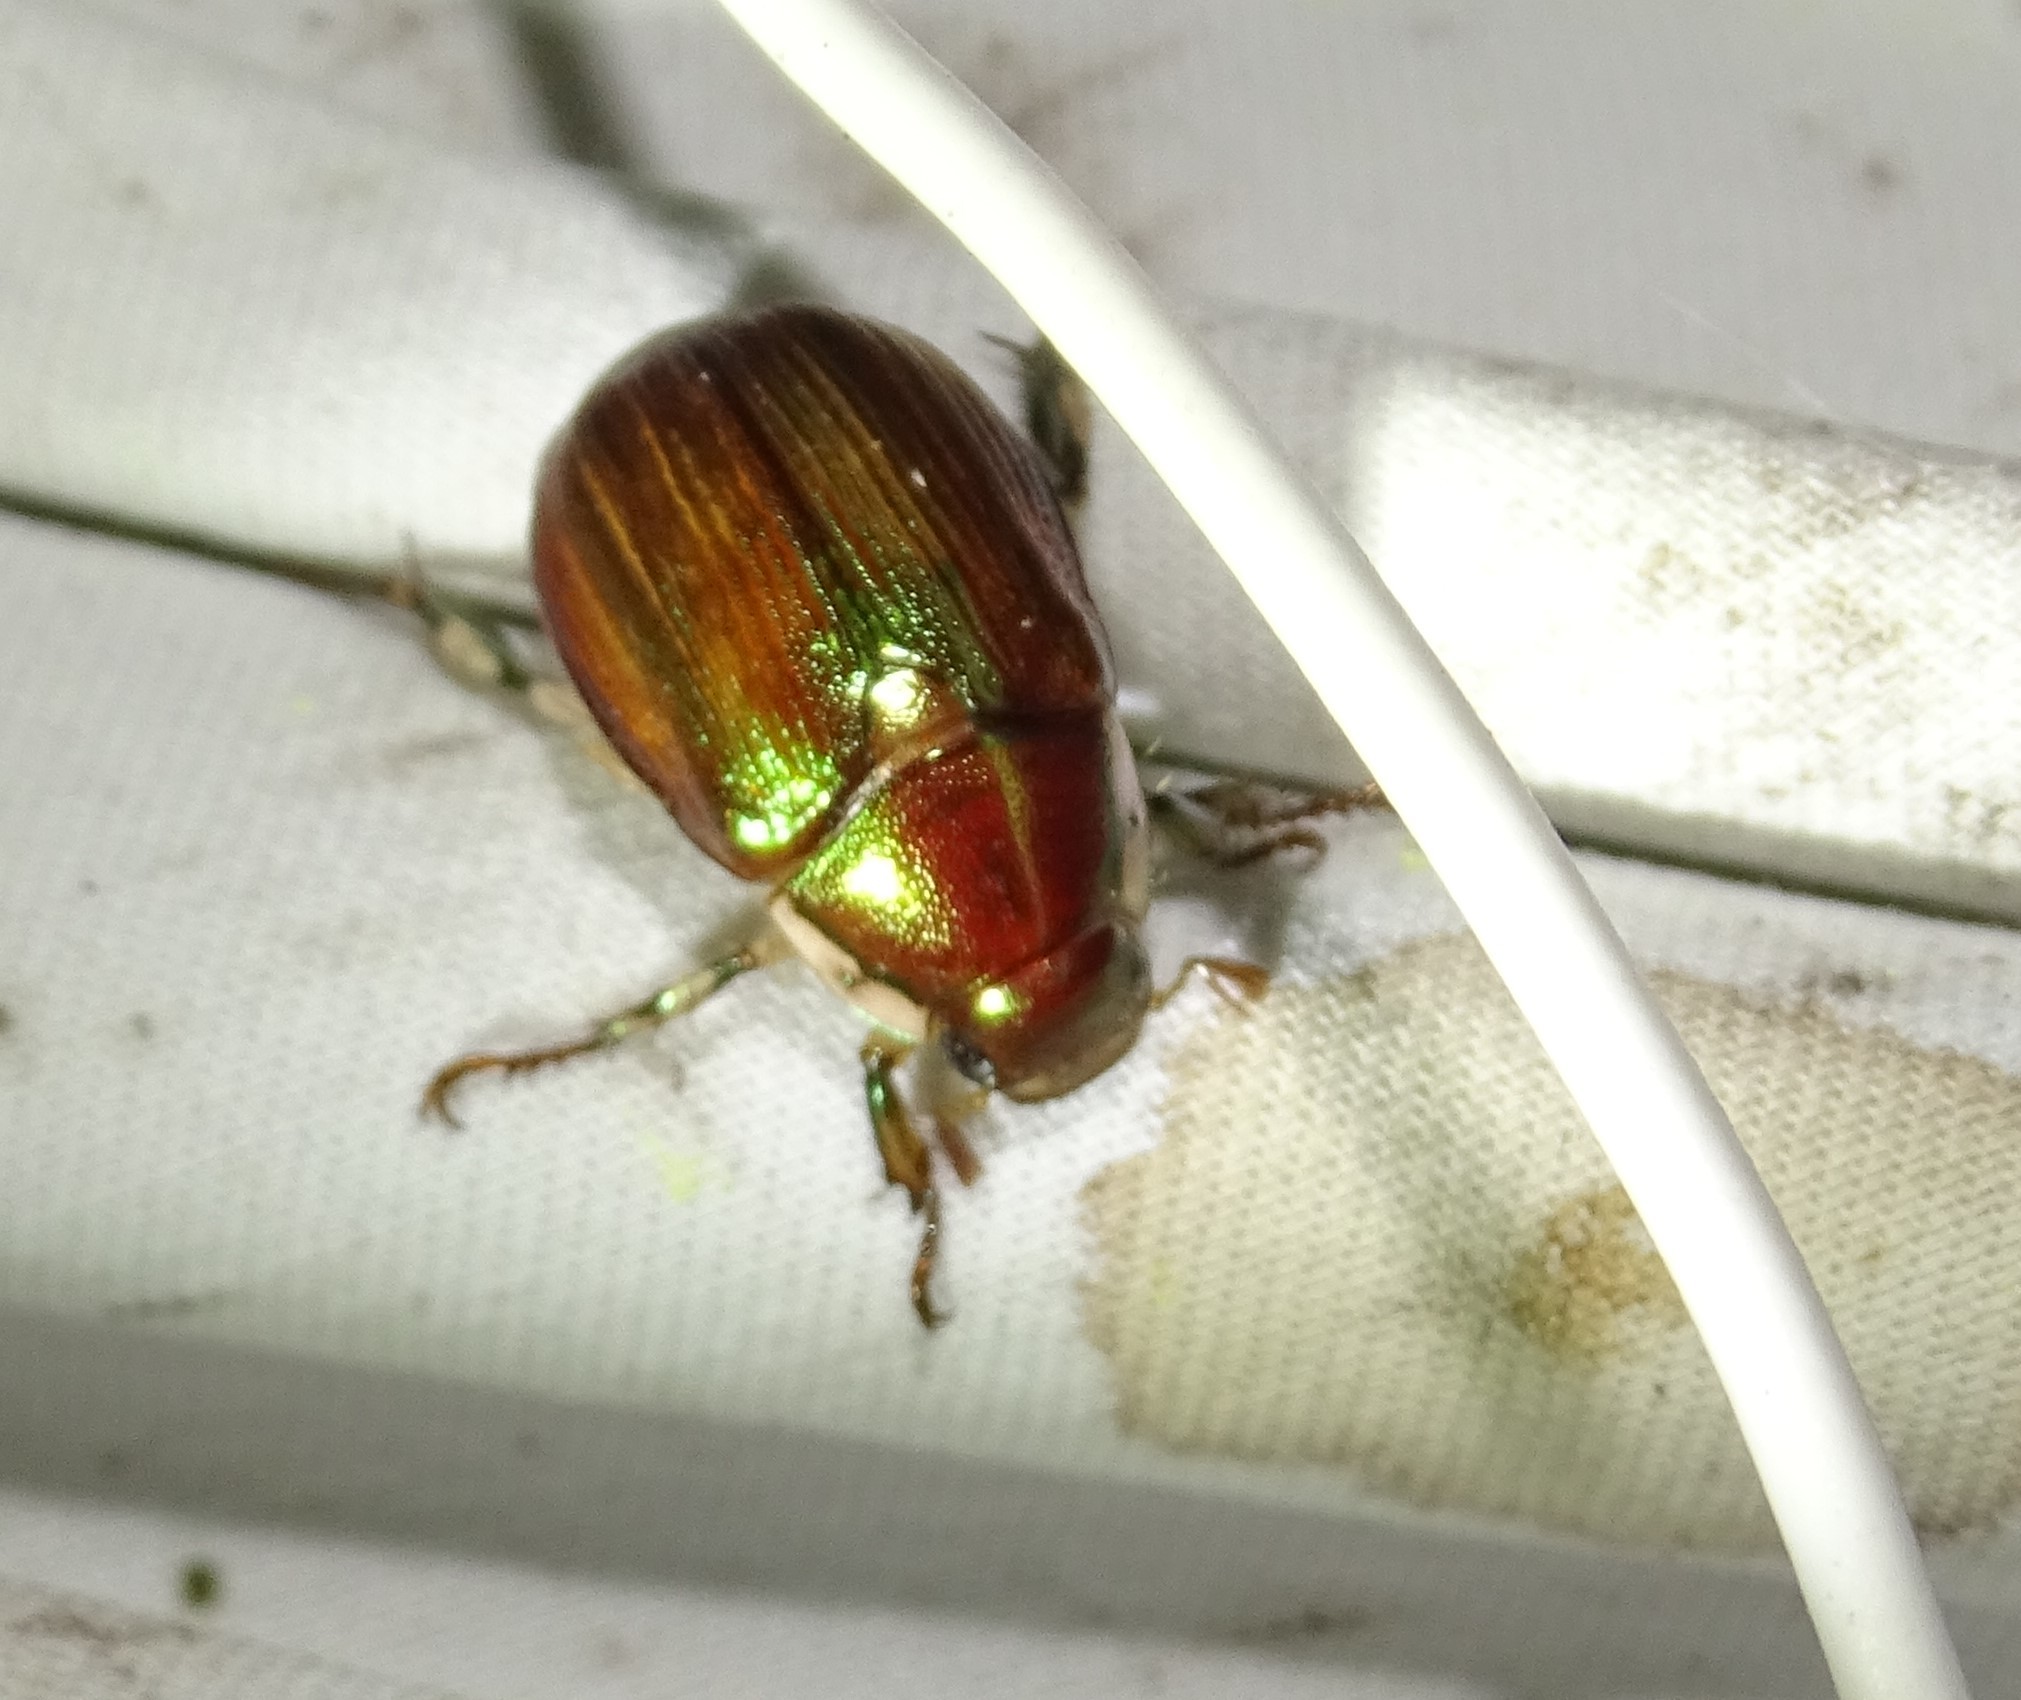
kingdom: Animalia
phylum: Arthropoda
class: Insecta
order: Coleoptera
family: Scarabaeidae
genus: Callistethus
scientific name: Callistethus marginatus
